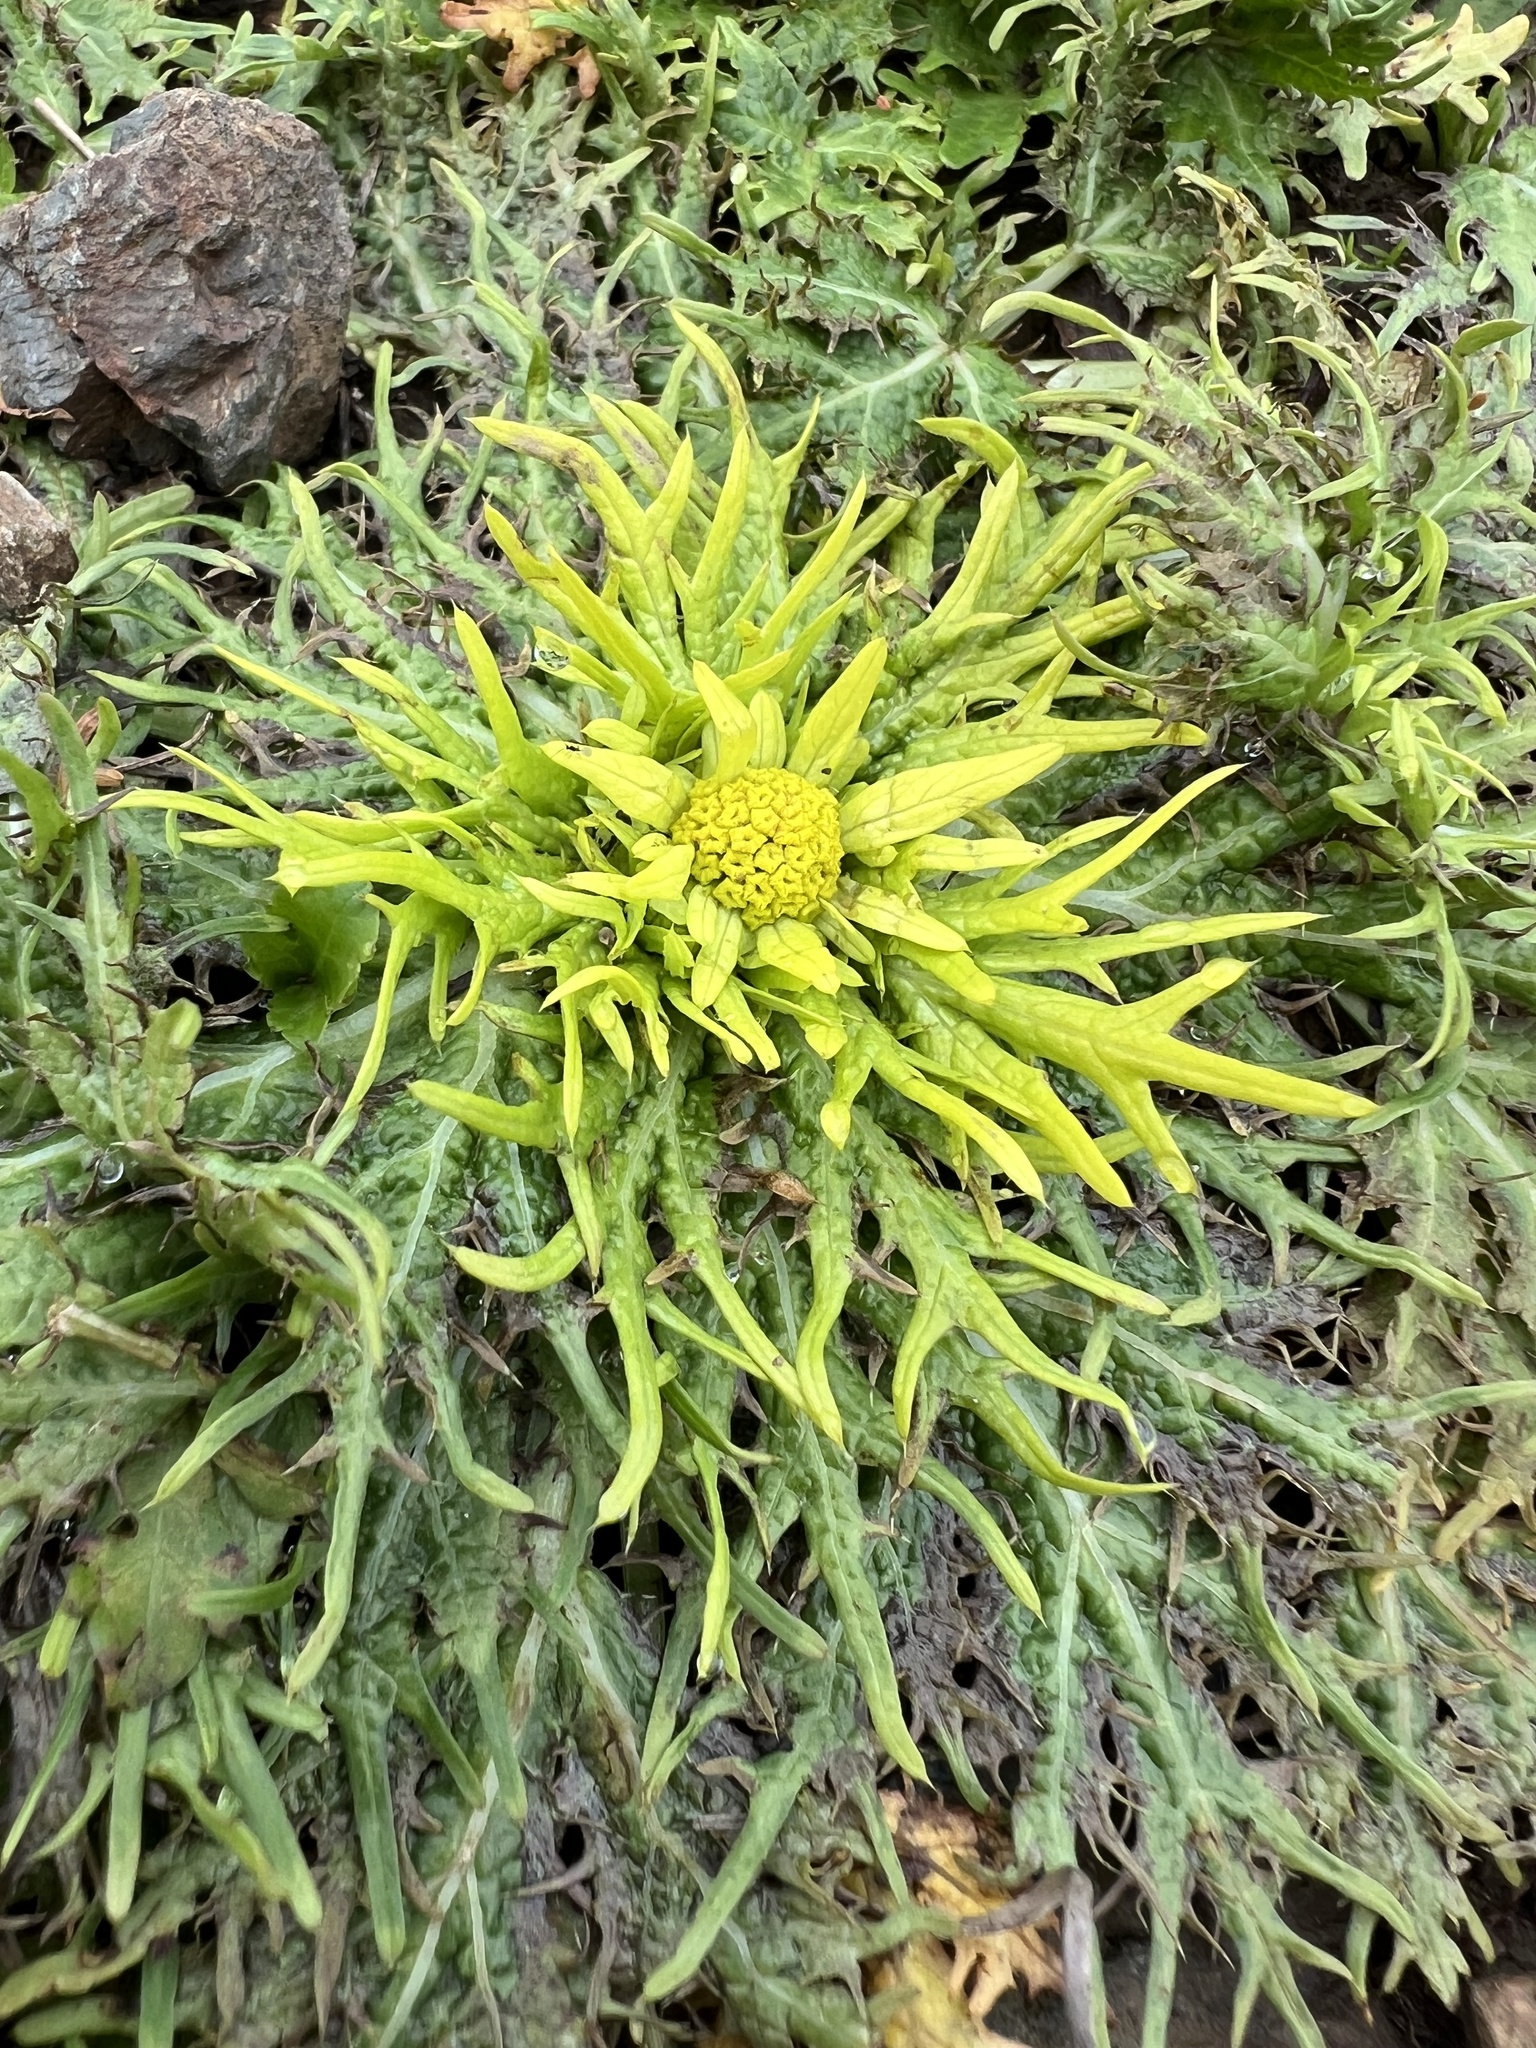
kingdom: Plantae
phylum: Tracheophyta
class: Magnoliopsida
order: Apiales
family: Apiaceae
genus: Sanicula
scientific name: Sanicula arctopoides
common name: Footsteps-of-spring
